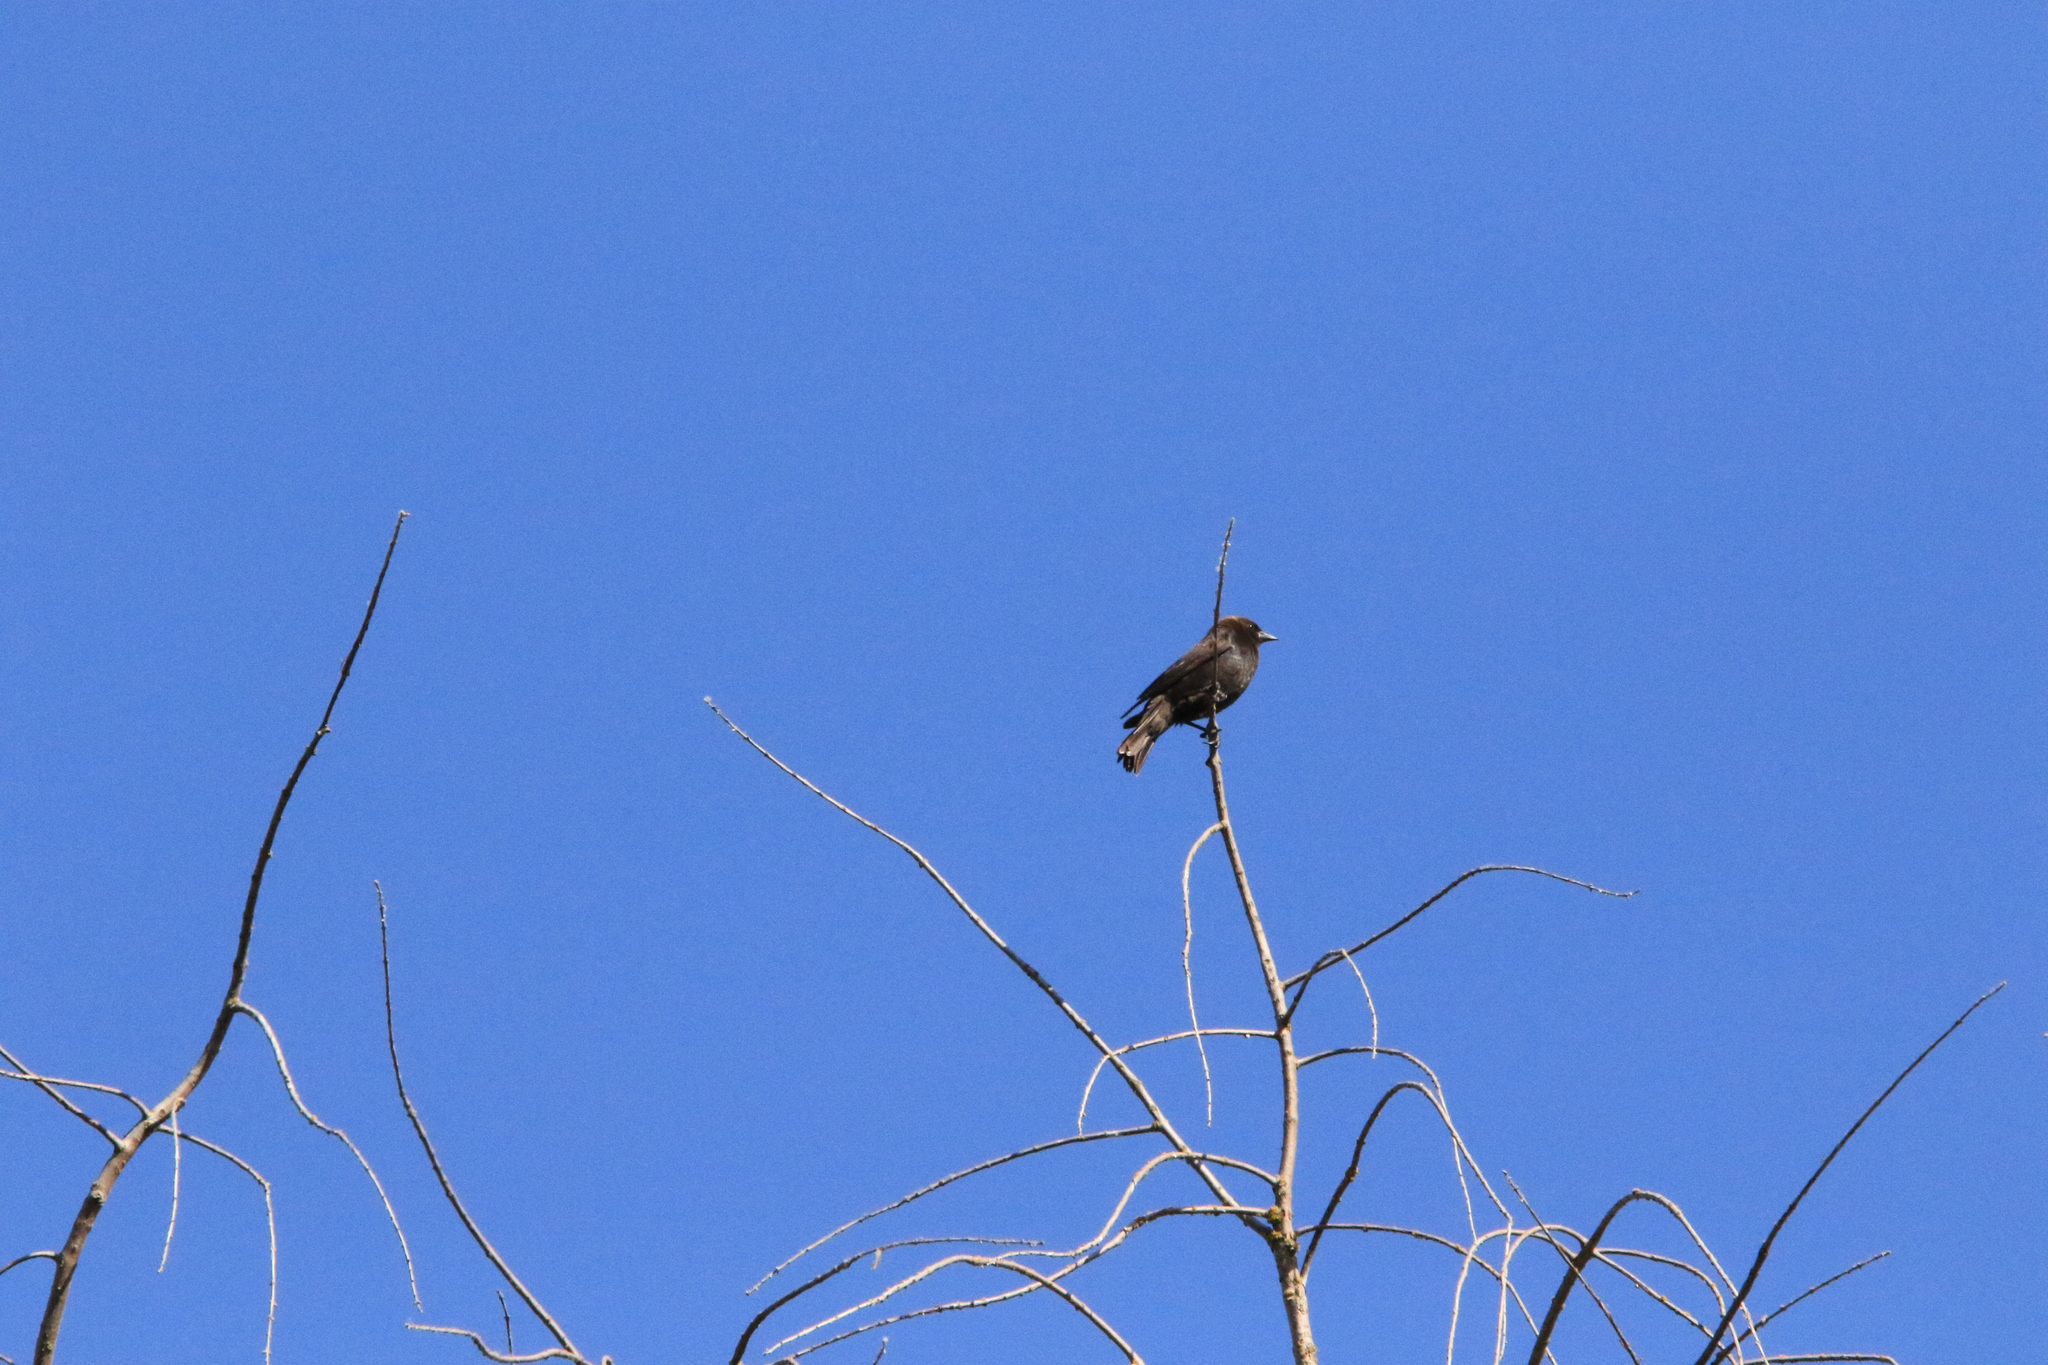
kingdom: Animalia
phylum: Chordata
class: Aves
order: Passeriformes
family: Icteridae
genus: Molothrus
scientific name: Molothrus ater
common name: Brown-headed cowbird
